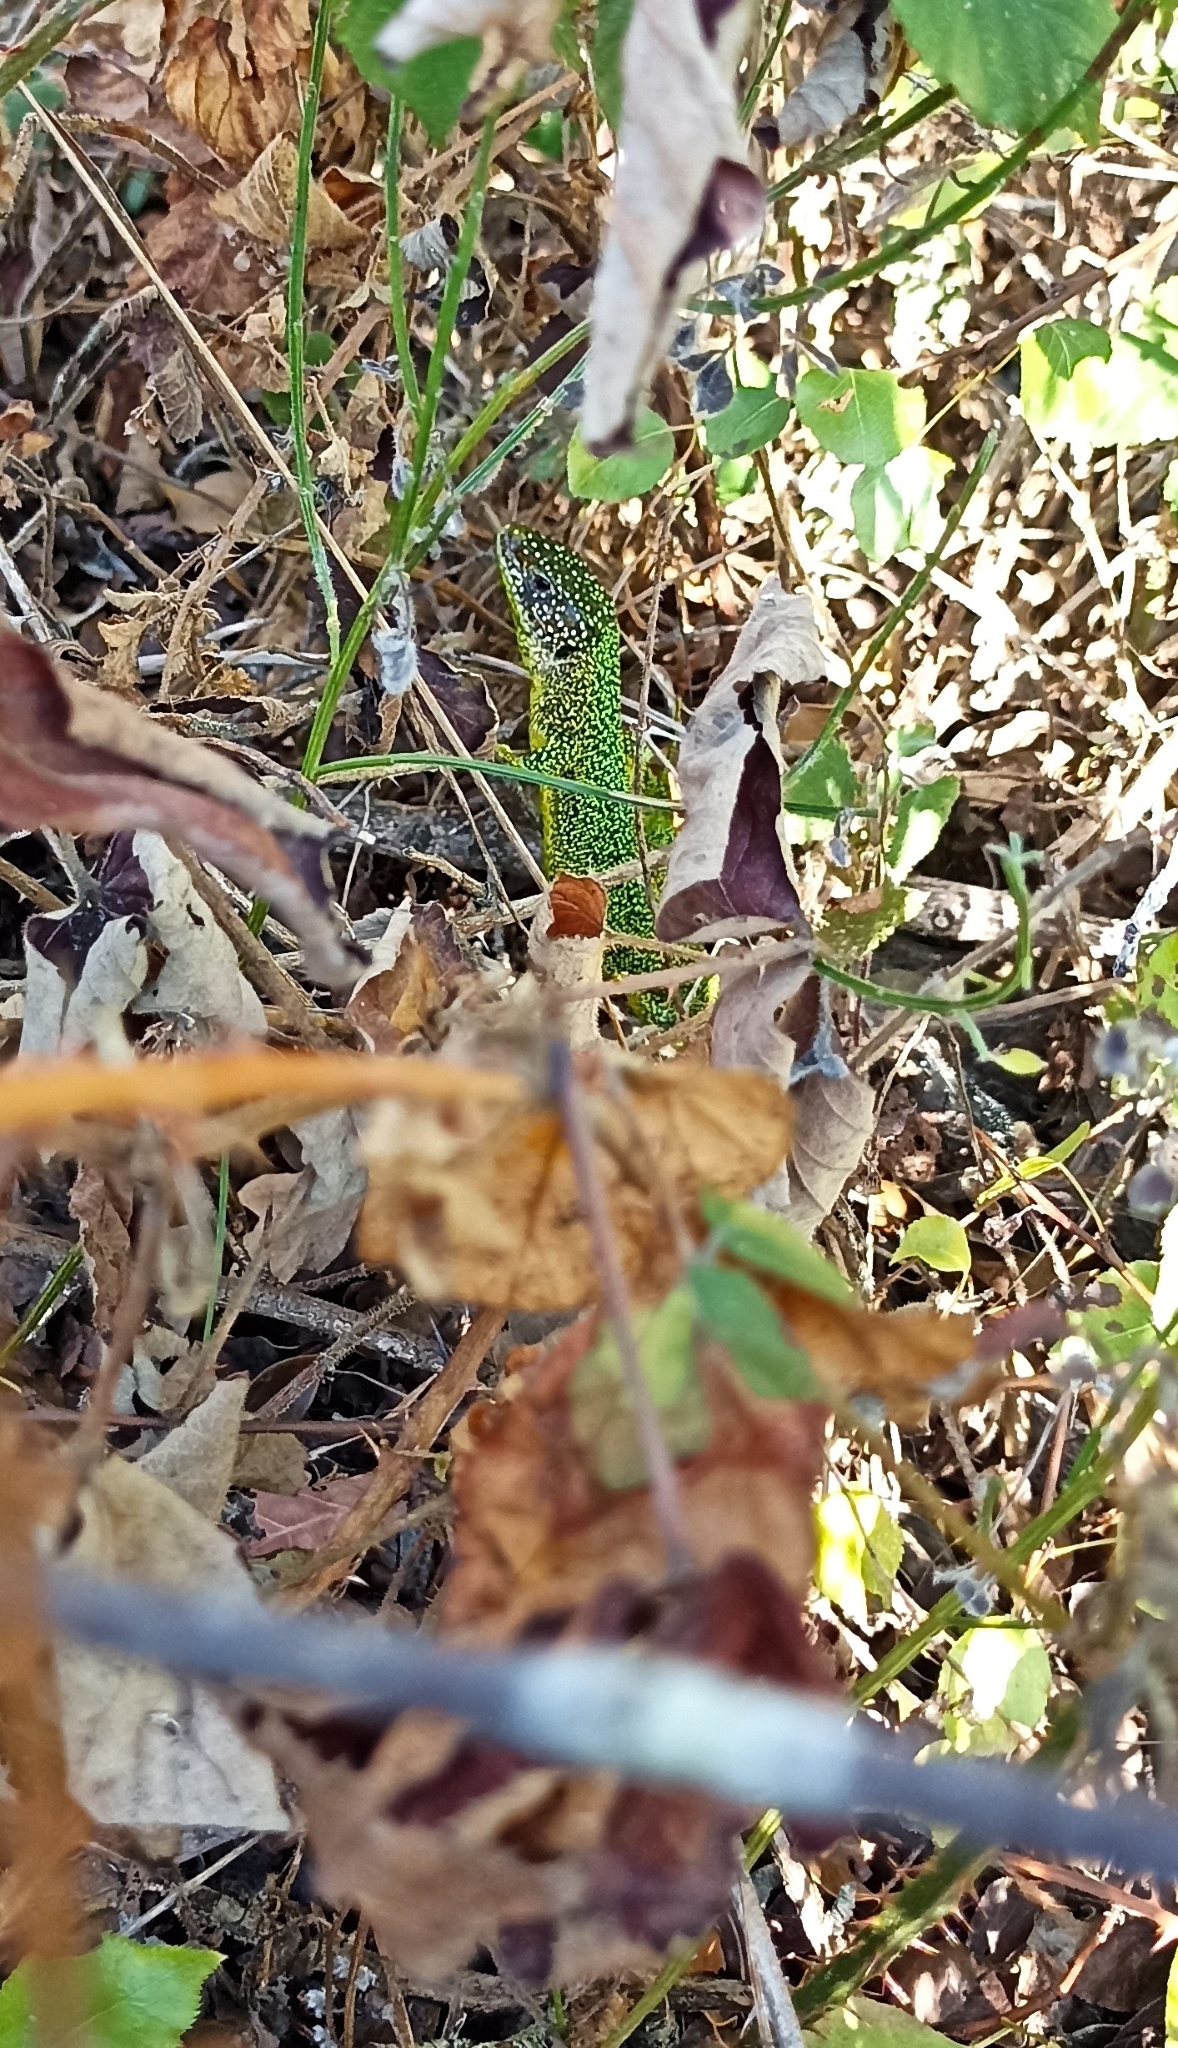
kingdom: Animalia
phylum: Chordata
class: Squamata
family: Lacertidae
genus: Lacerta
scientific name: Lacerta bilineata
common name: Western green lizard
